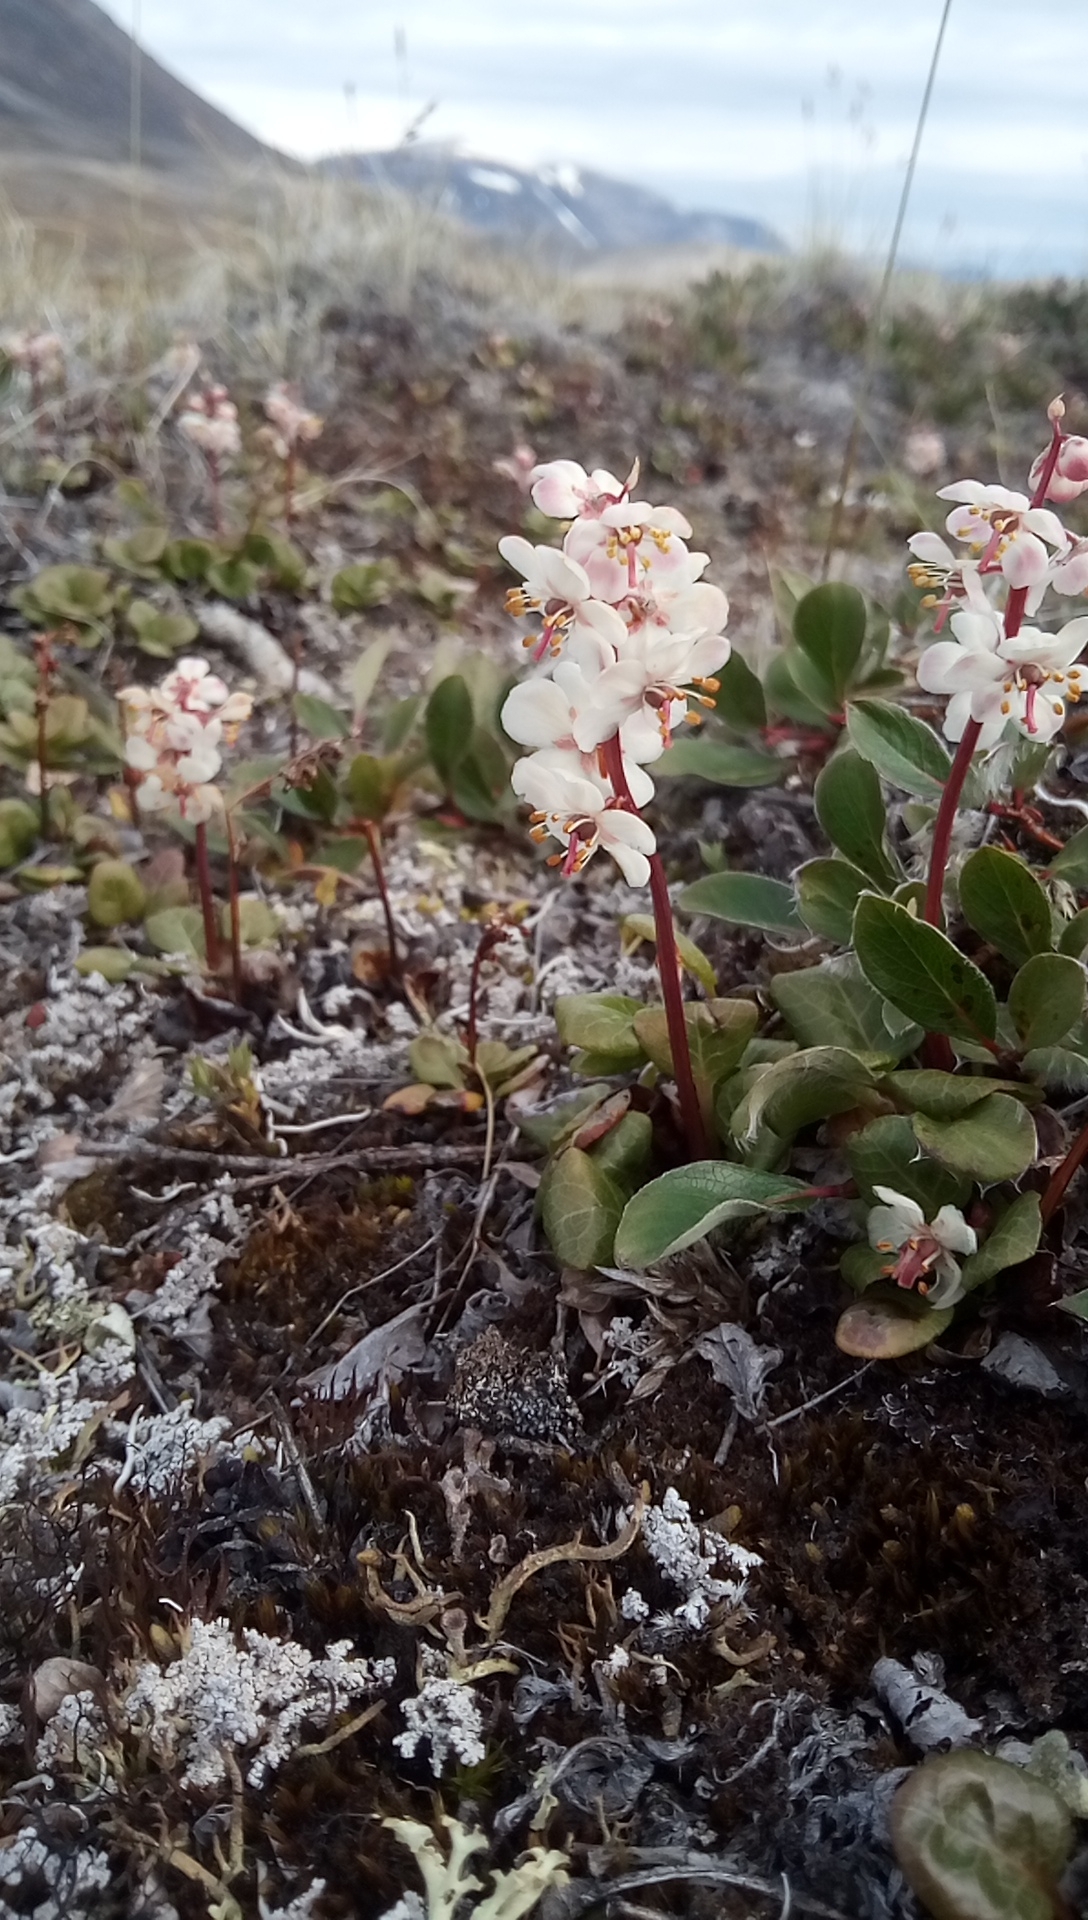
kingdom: Plantae
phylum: Tracheophyta
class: Magnoliopsida
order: Ericales
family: Ericaceae
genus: Pyrola
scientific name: Pyrola grandiflora
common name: Arctic pyrola
